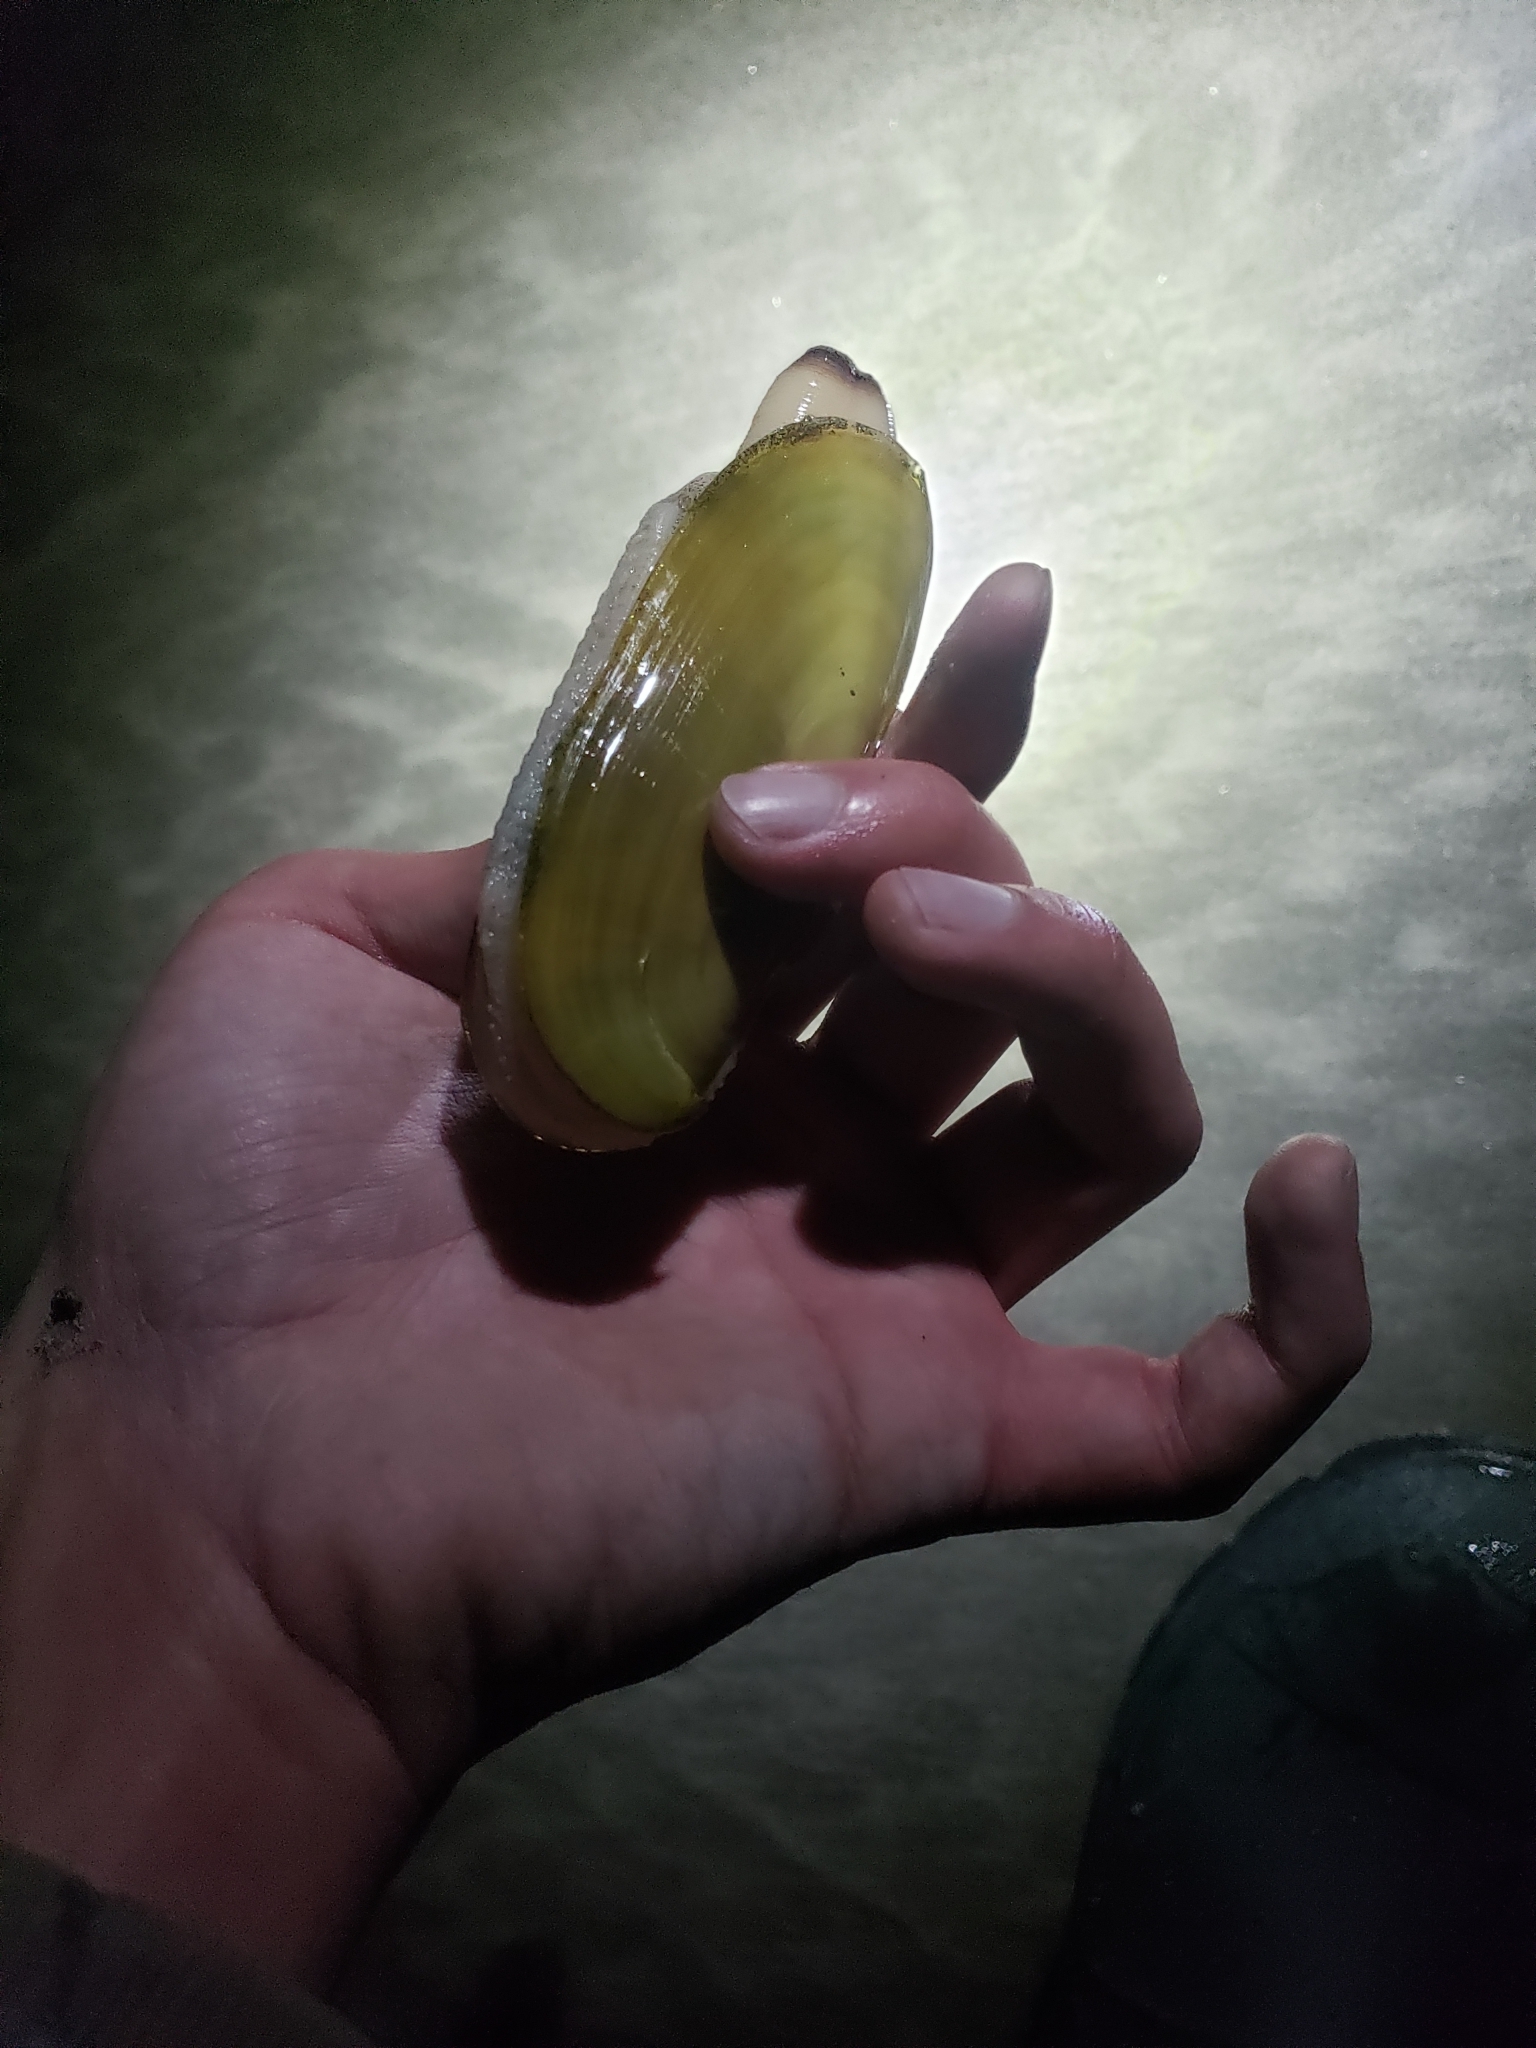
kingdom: Animalia
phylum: Mollusca
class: Bivalvia
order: Adapedonta
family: Pharidae
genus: Siliqua
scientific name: Siliqua patula
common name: Pacific razor clam
